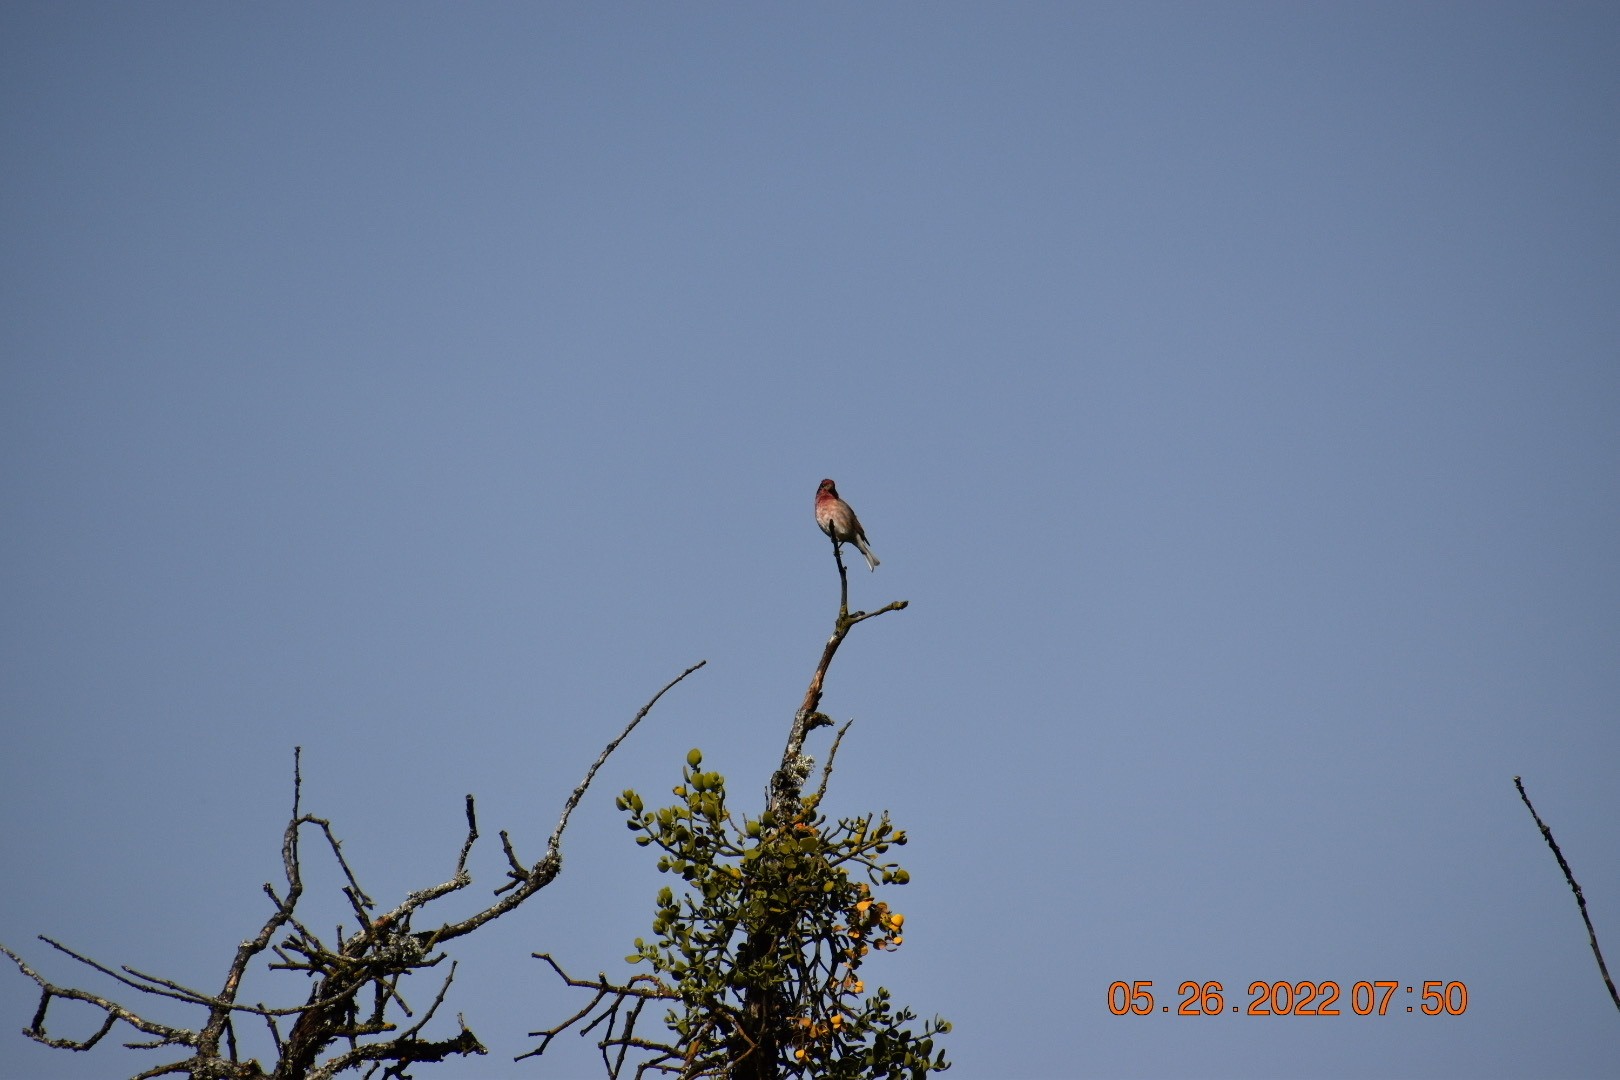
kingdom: Animalia
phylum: Chordata
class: Aves
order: Passeriformes
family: Fringillidae
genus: Haemorhous
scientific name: Haemorhous purpureus
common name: Purple finch
